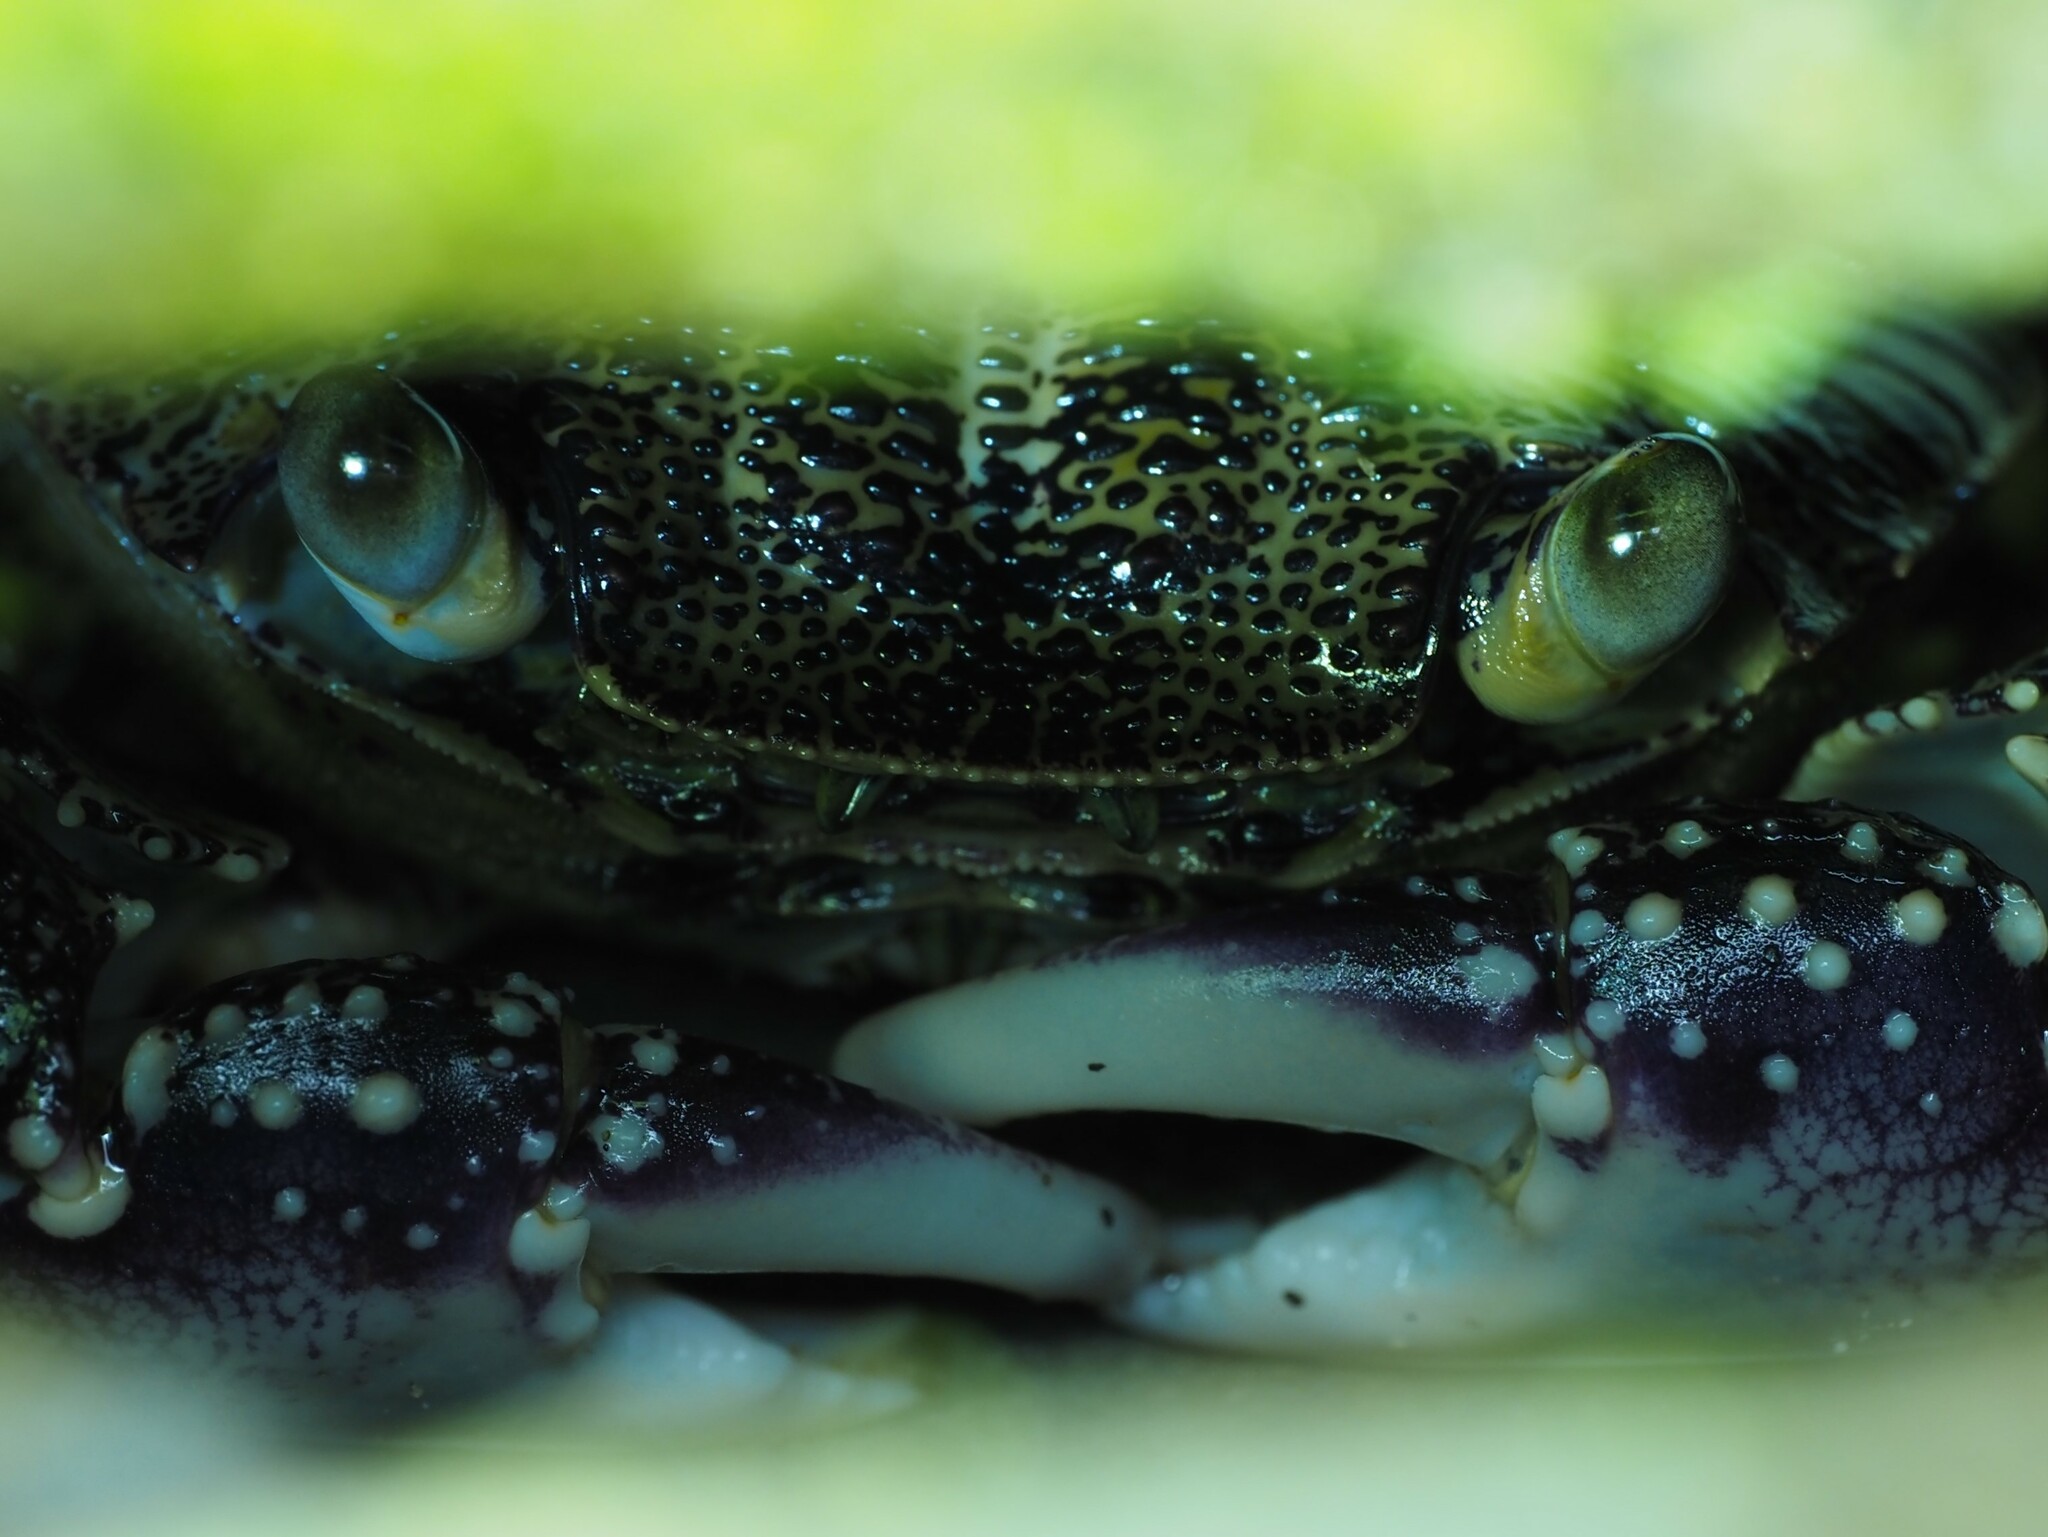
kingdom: Animalia
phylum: Arthropoda
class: Malacostraca
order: Decapoda
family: Grapsidae
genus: Leptograpsus
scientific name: Leptograpsus variegatus
